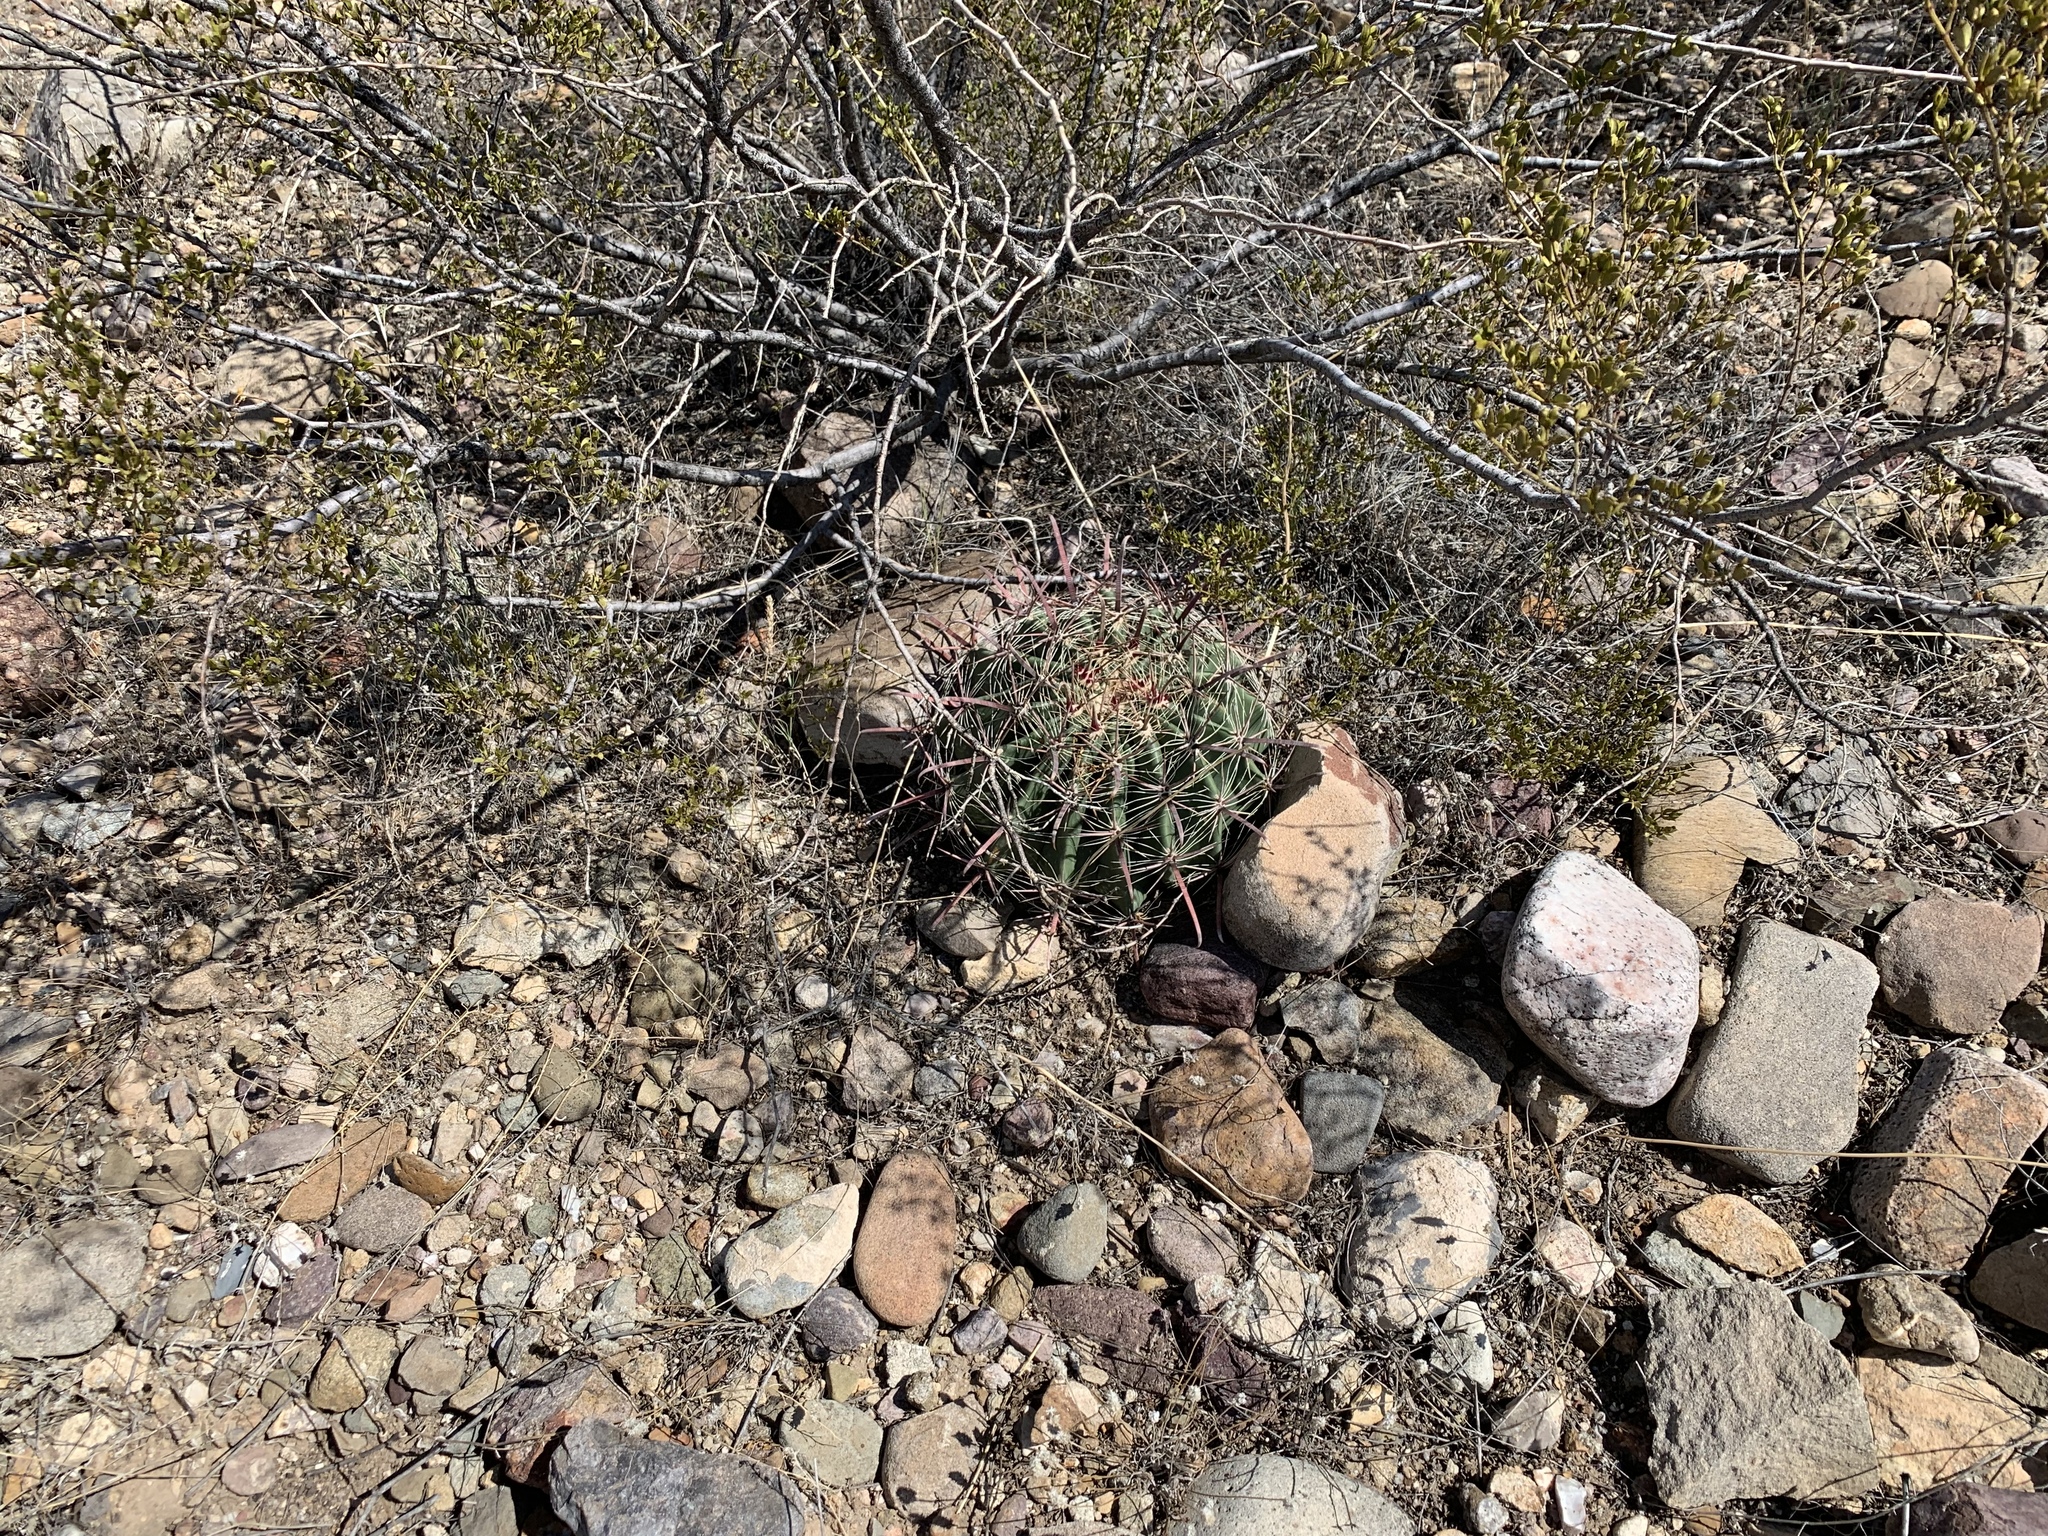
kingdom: Plantae
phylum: Tracheophyta
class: Magnoliopsida
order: Caryophyllales
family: Cactaceae
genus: Ferocactus
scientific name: Ferocactus wislizeni
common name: Candy barrel cactus
